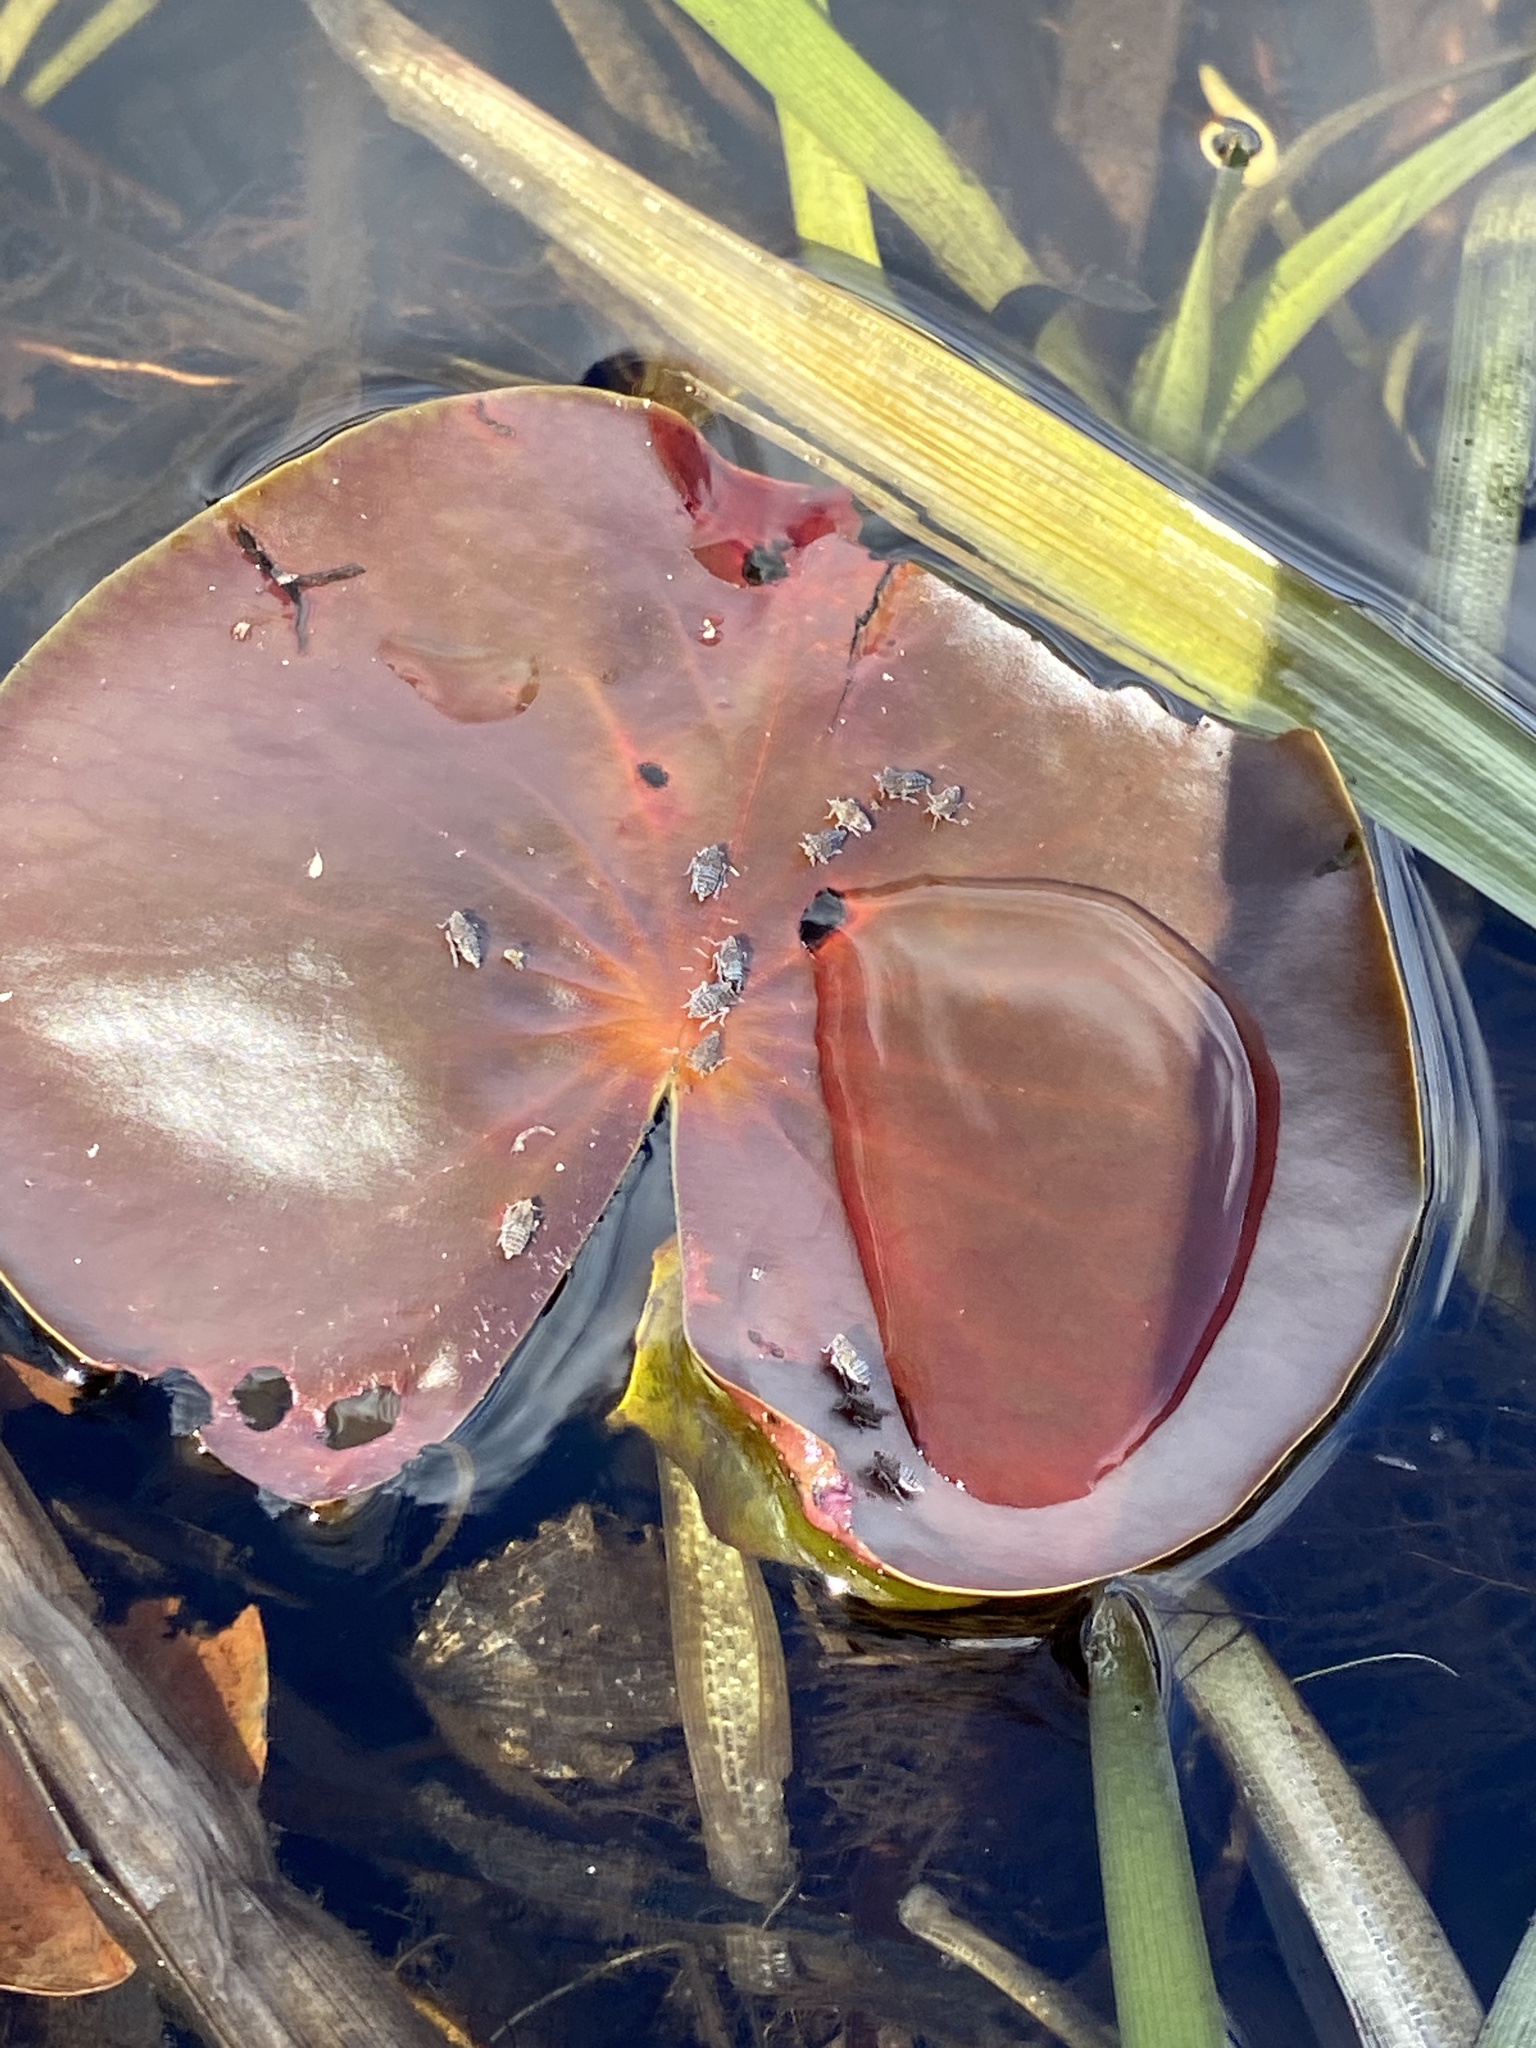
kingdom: Plantae
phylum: Tracheophyta
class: Magnoliopsida
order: Nymphaeales
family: Nymphaeaceae
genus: Nymphaea
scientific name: Nymphaea odorata
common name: Fragrant water-lily
